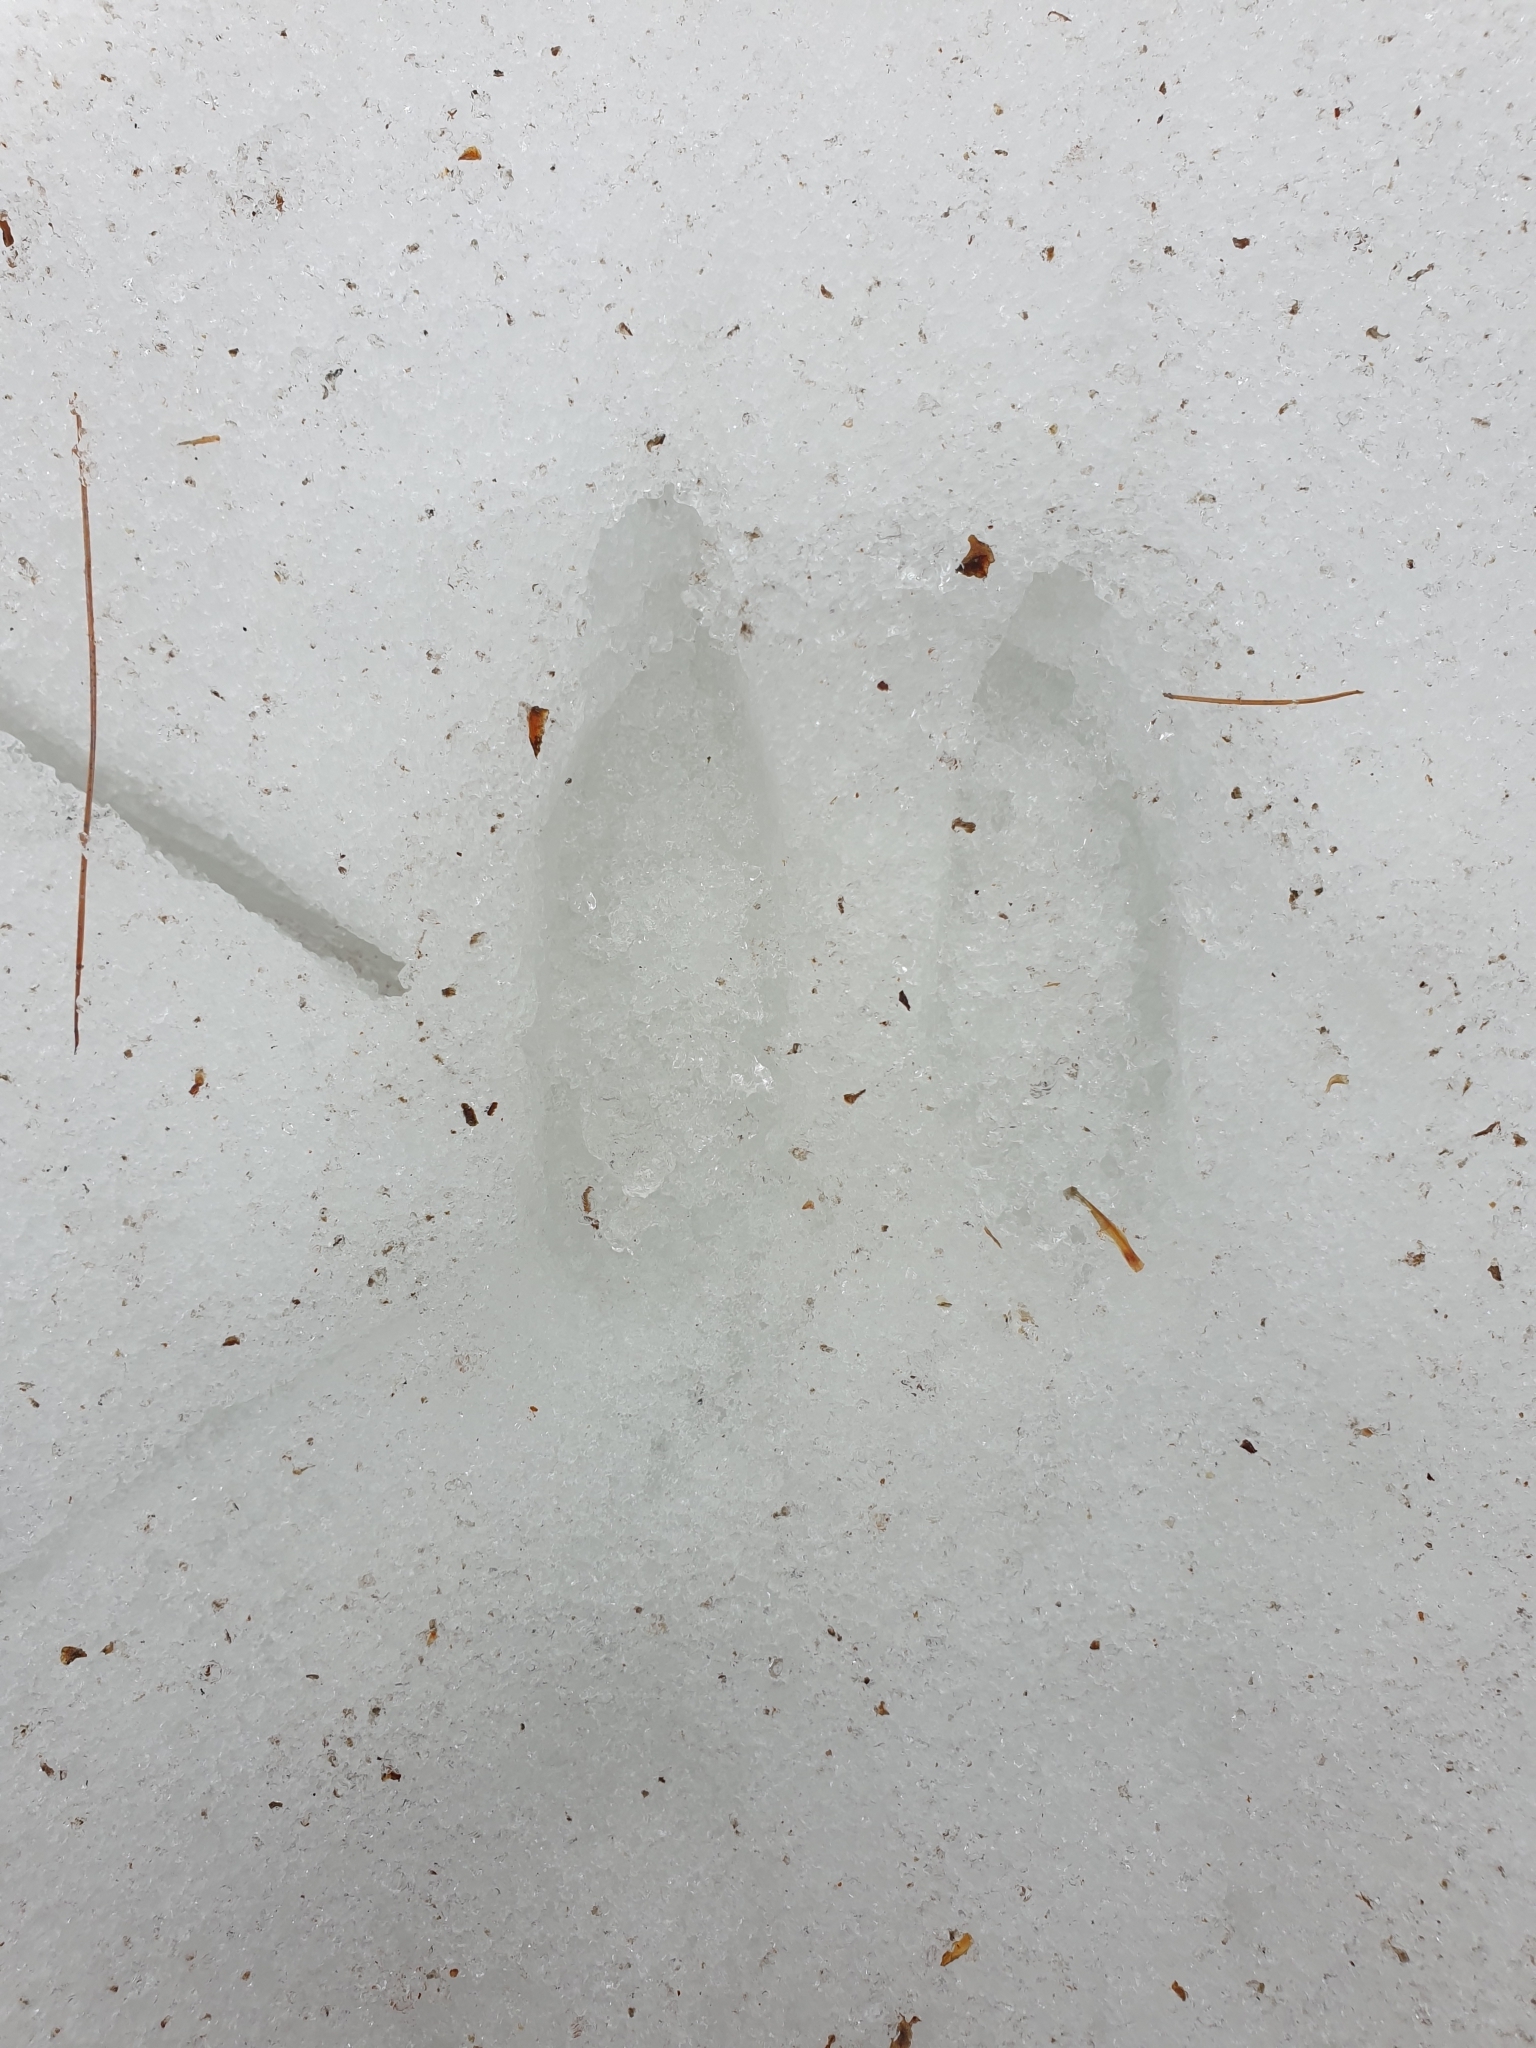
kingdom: Animalia
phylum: Chordata
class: Mammalia
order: Artiodactyla
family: Cervidae
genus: Odocoileus
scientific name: Odocoileus virginianus
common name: White-tailed deer
